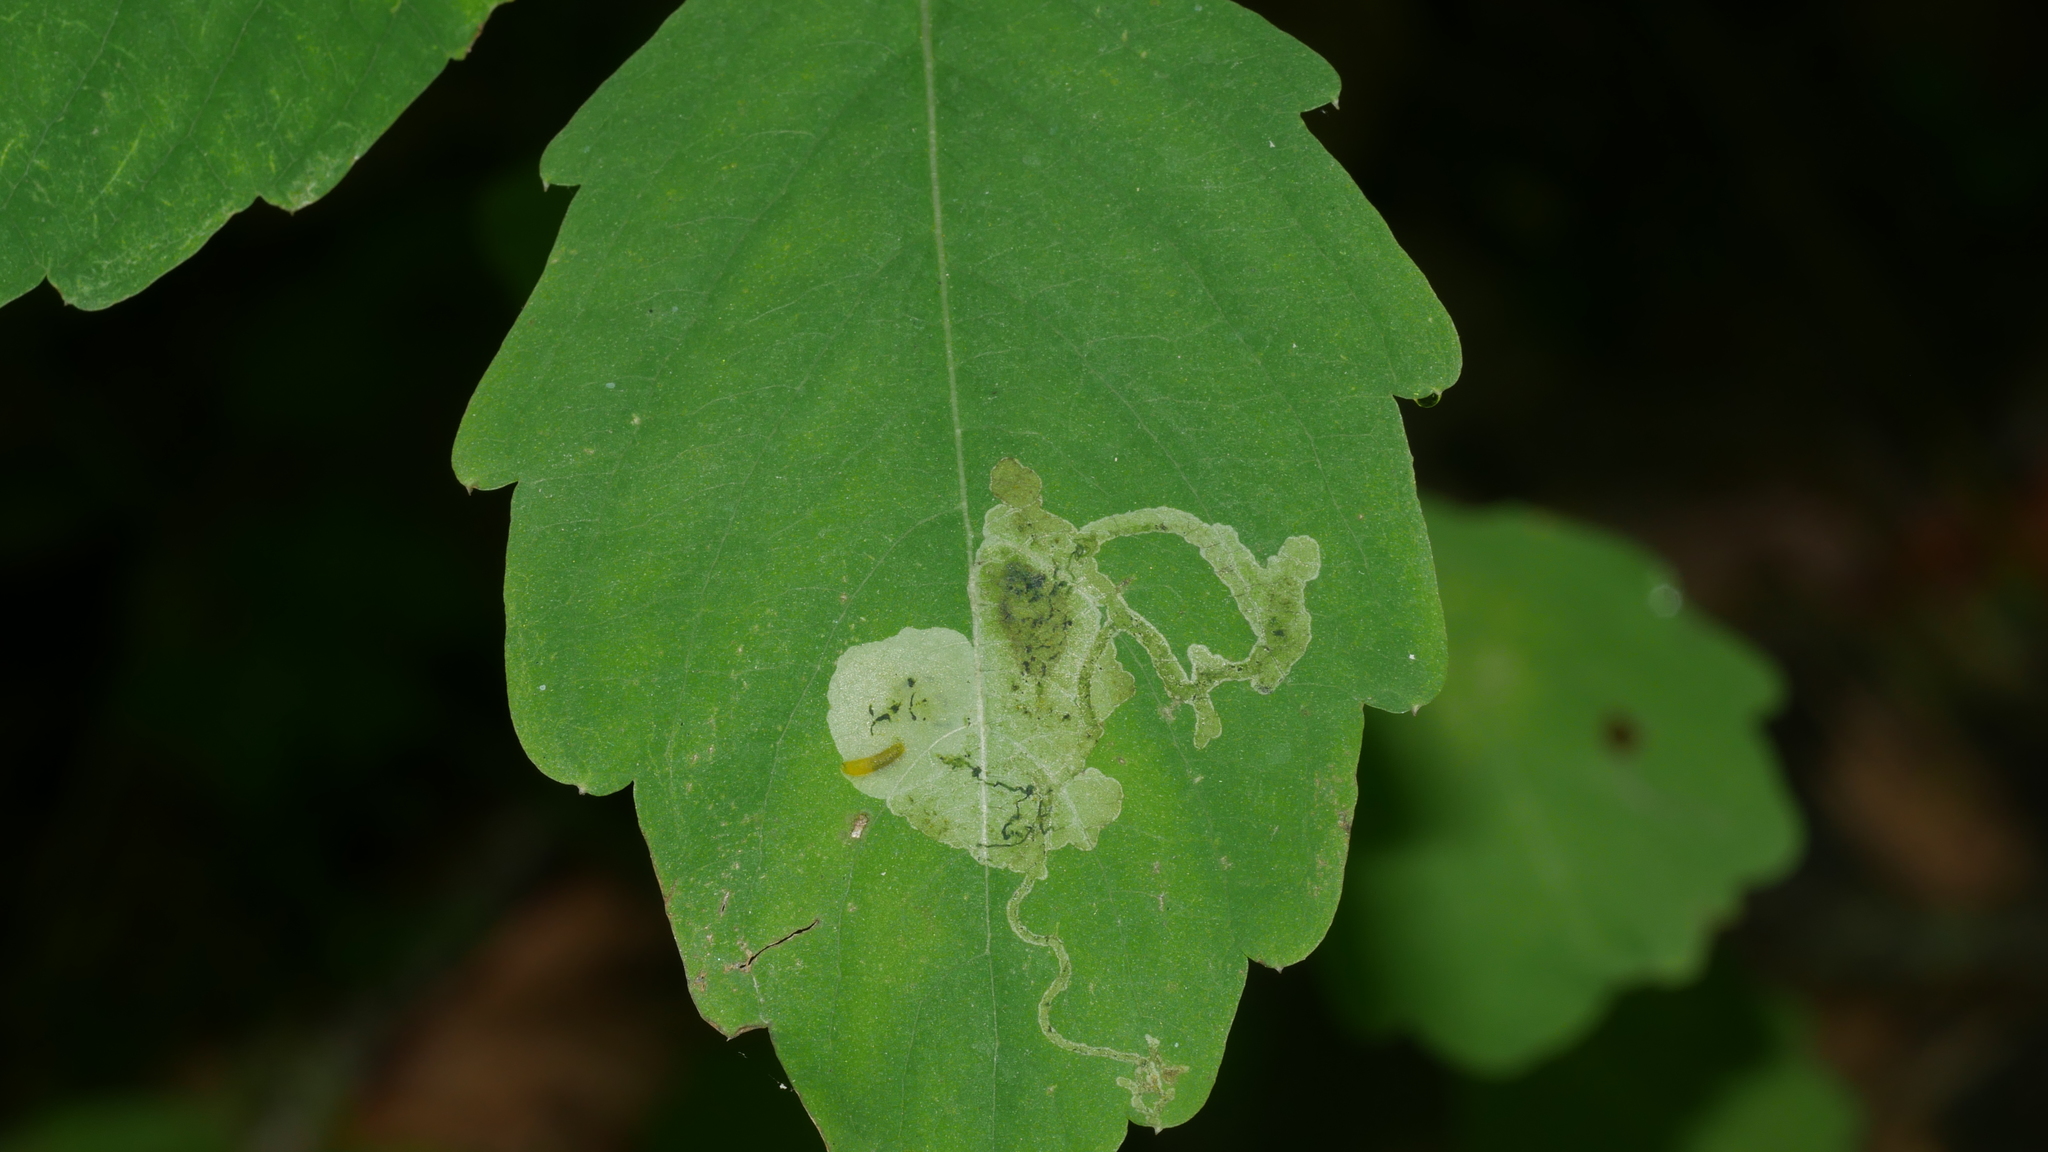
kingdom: Animalia
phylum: Arthropoda
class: Insecta
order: Diptera
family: Agromyzidae
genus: Phytoliriomyza
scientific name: Phytoliriomyza melampyga
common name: Jewelweed leaf-miner fly
